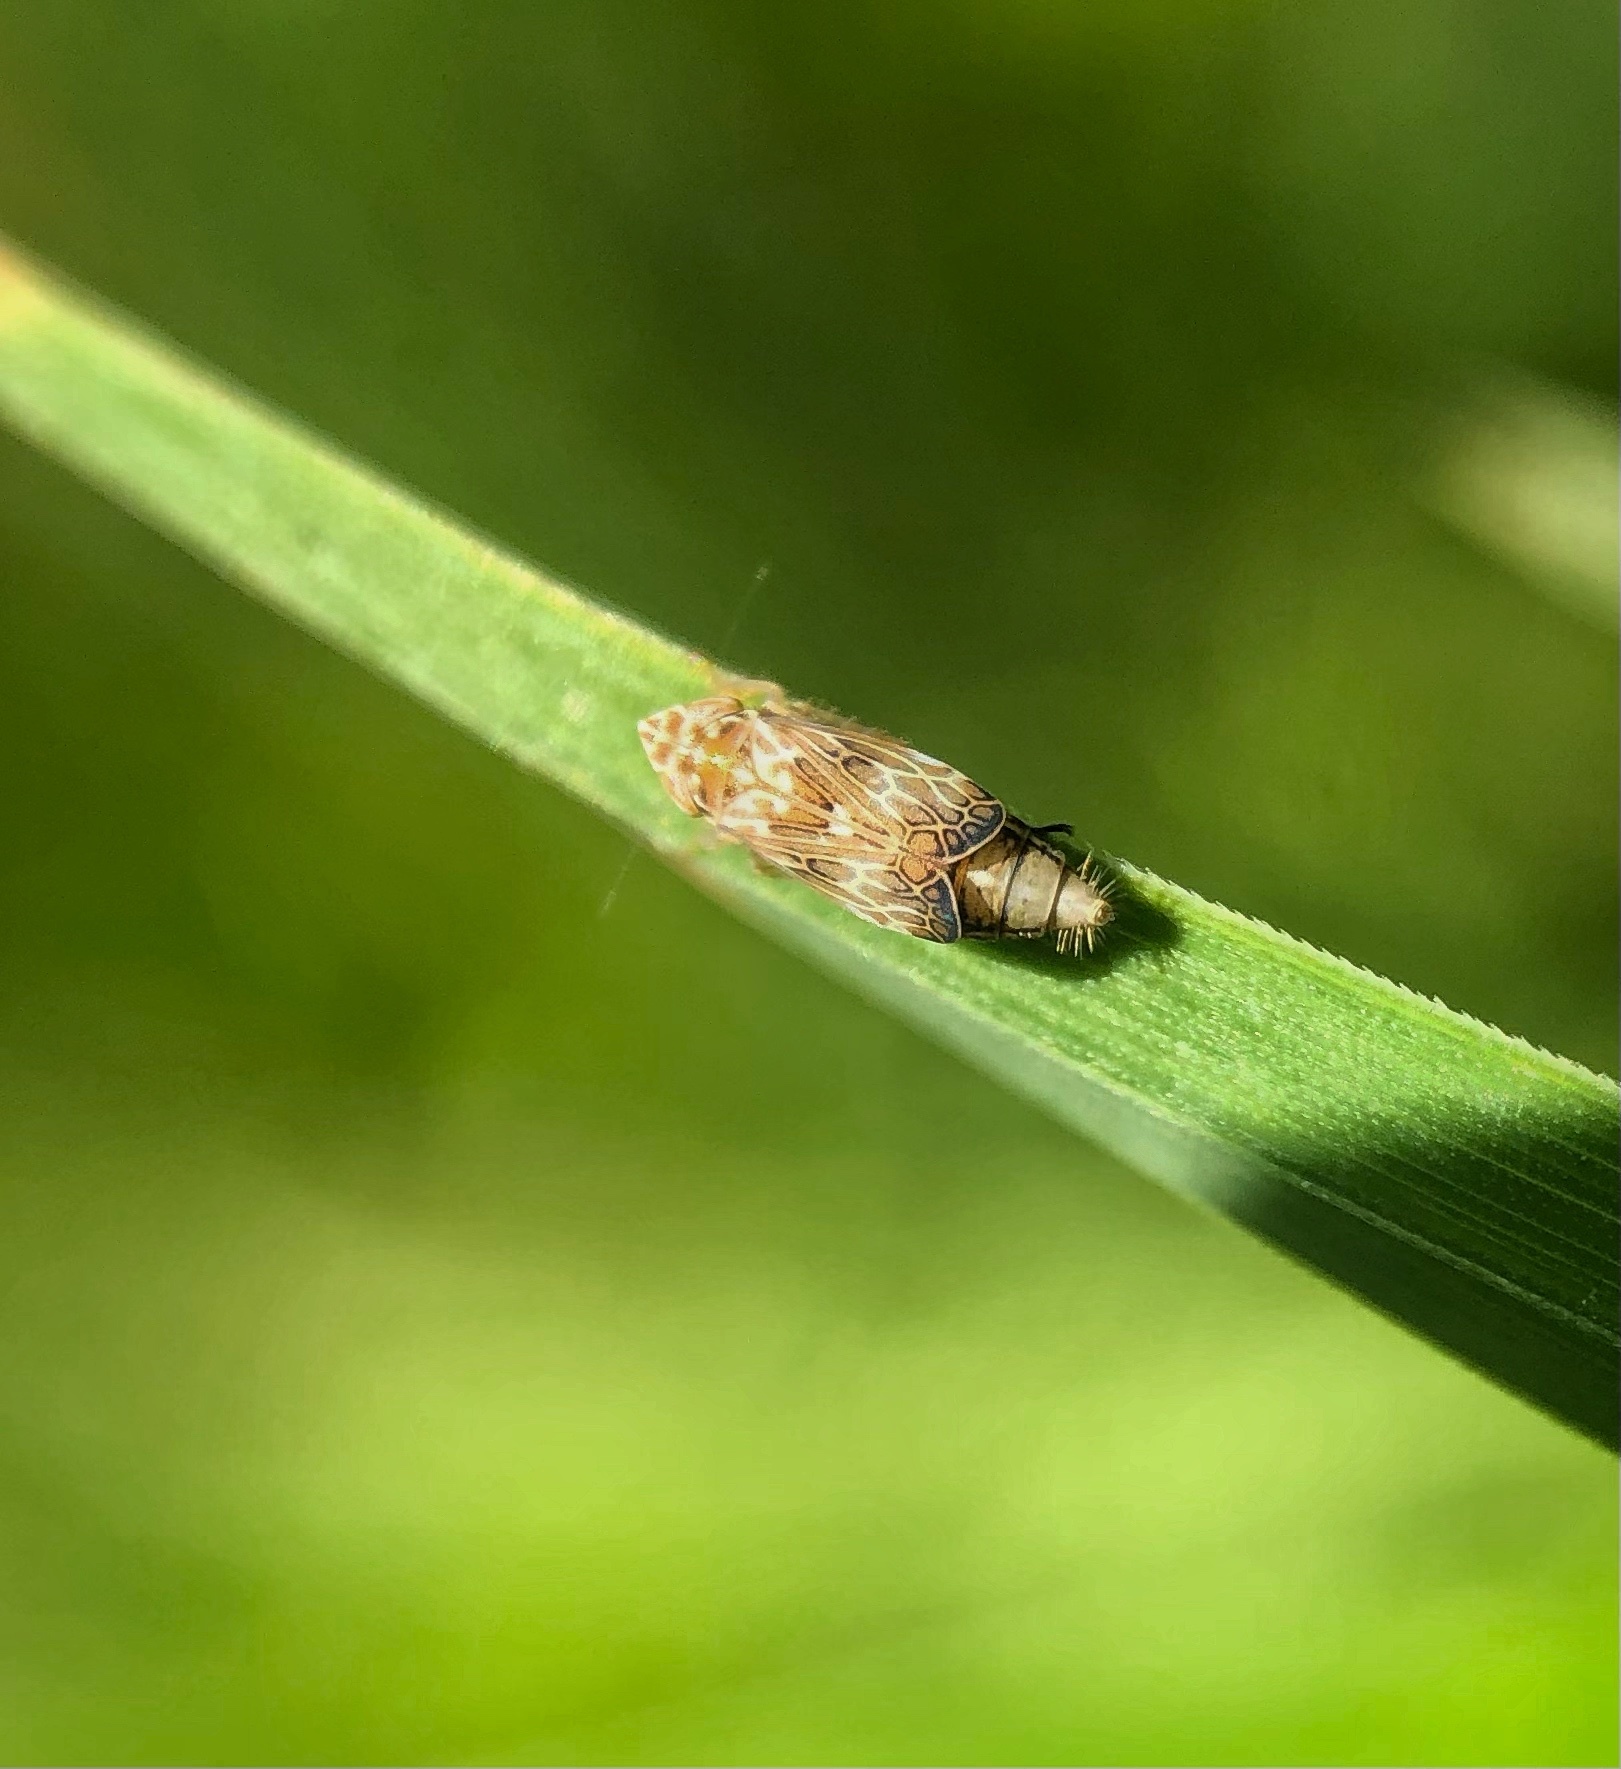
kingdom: Animalia
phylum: Arthropoda
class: Insecta
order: Hemiptera
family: Cicadellidae
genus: Latalus
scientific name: Latalus sayii
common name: Say’s leafhopper
